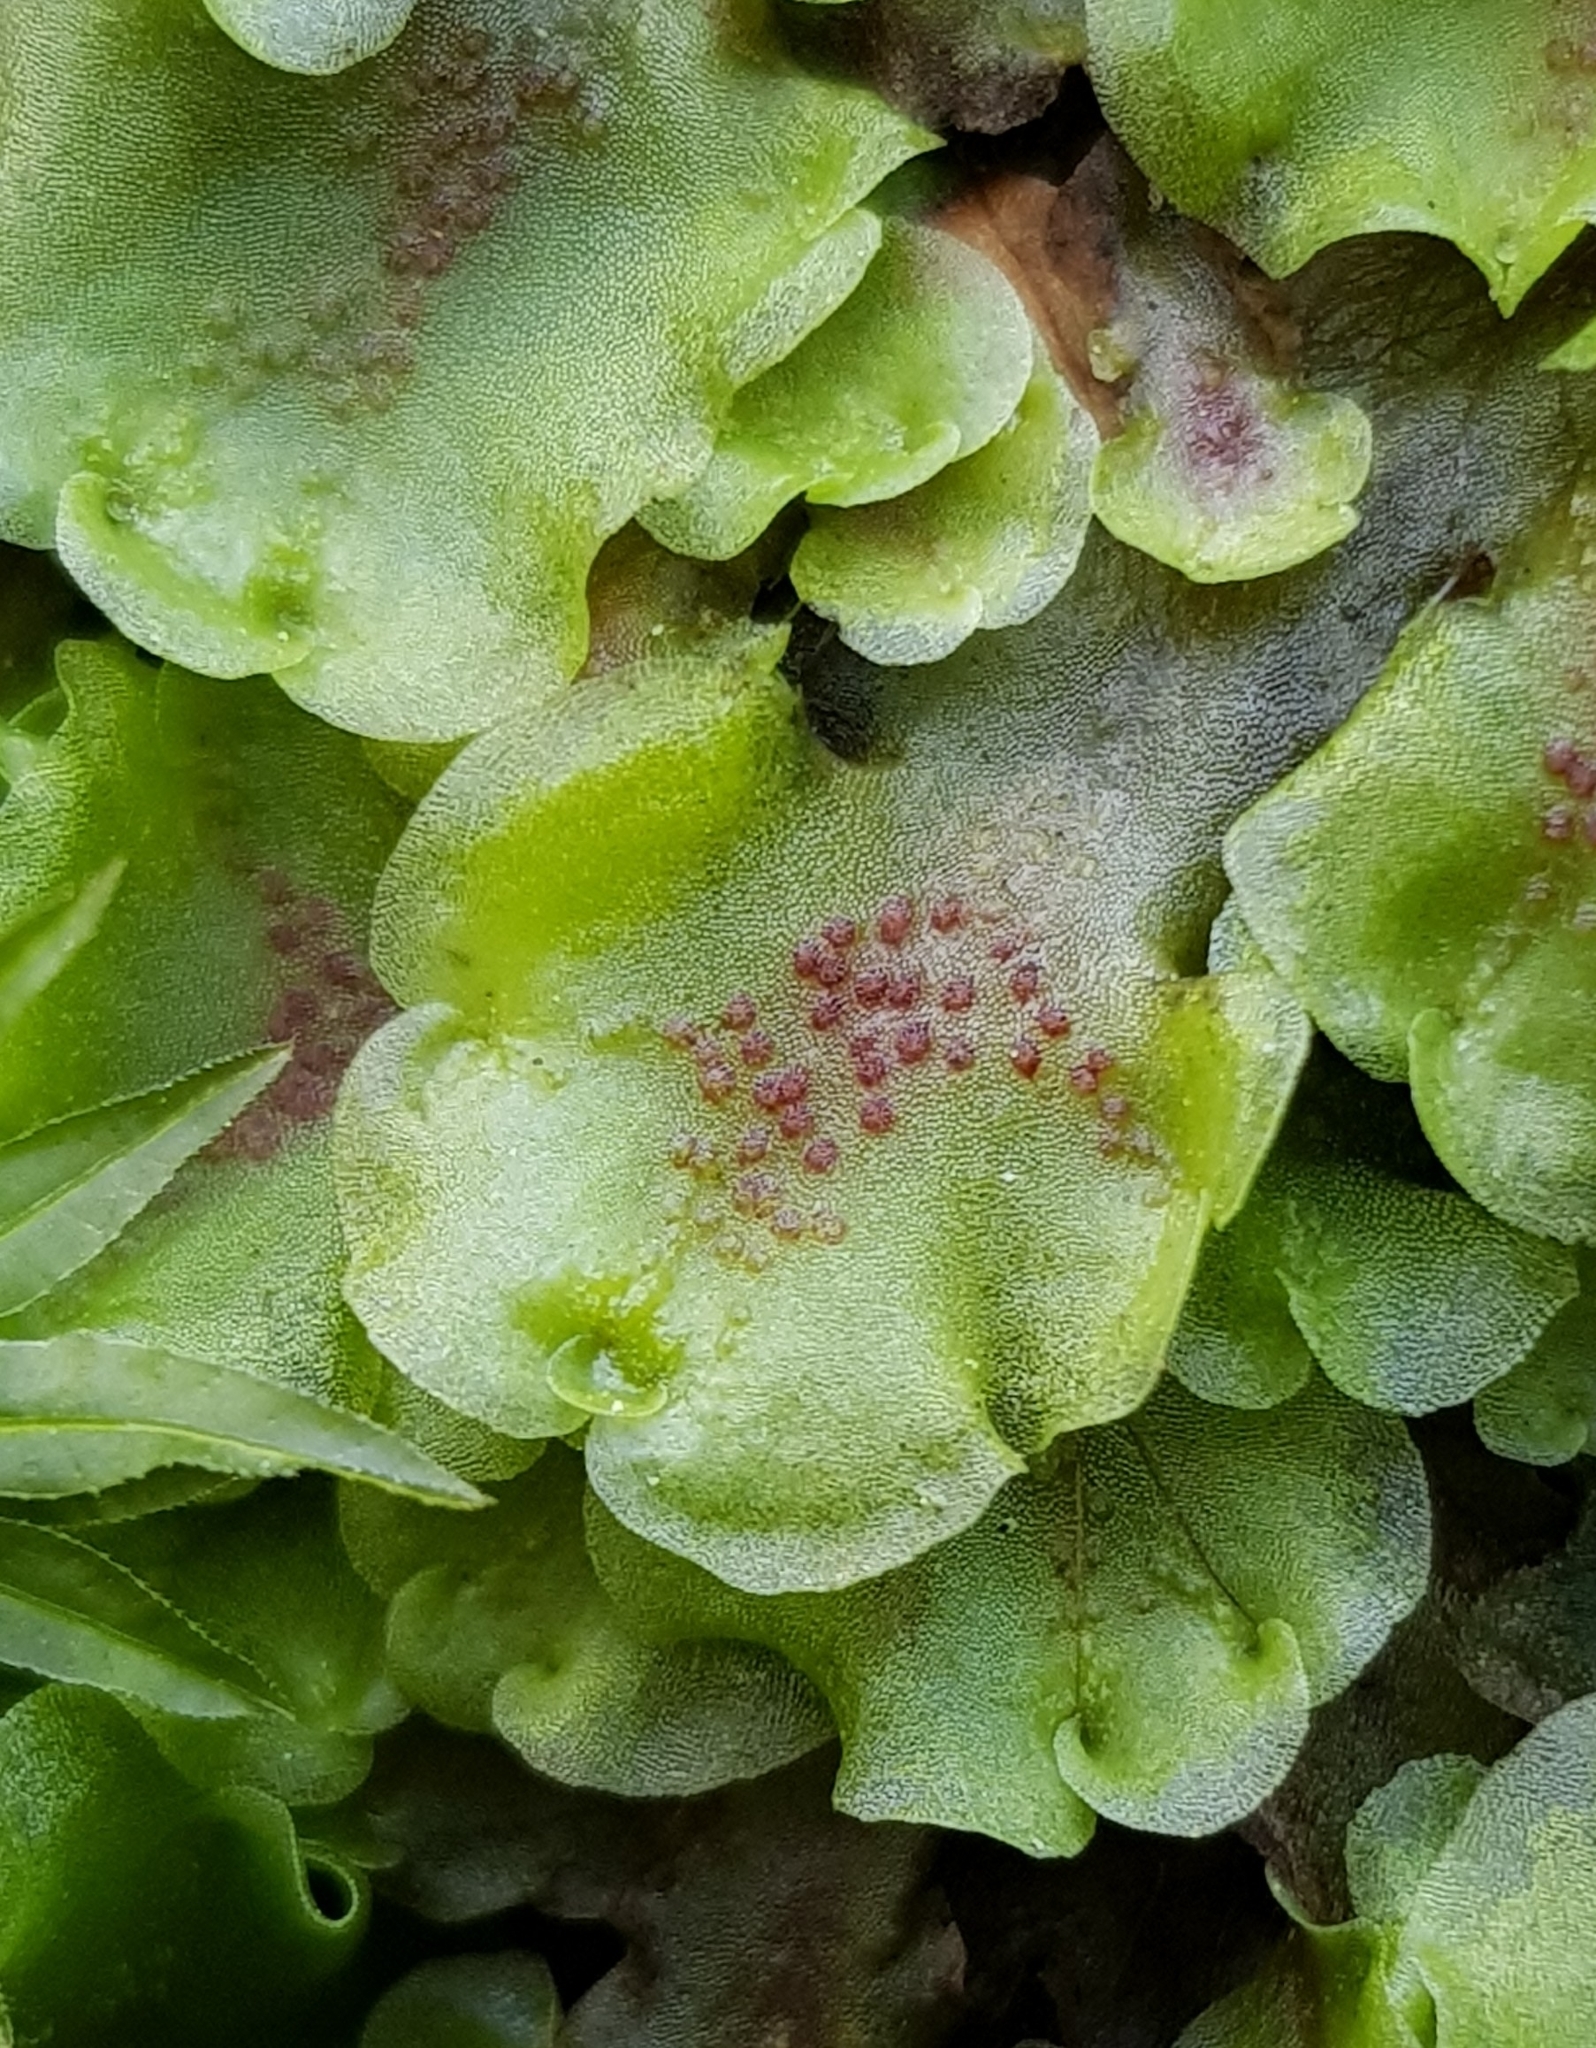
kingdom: Plantae
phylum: Marchantiophyta
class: Jungermanniopsida
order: Pelliales
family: Pelliaceae
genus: Pellia
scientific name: Pellia neesiana
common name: Nees  pellia
